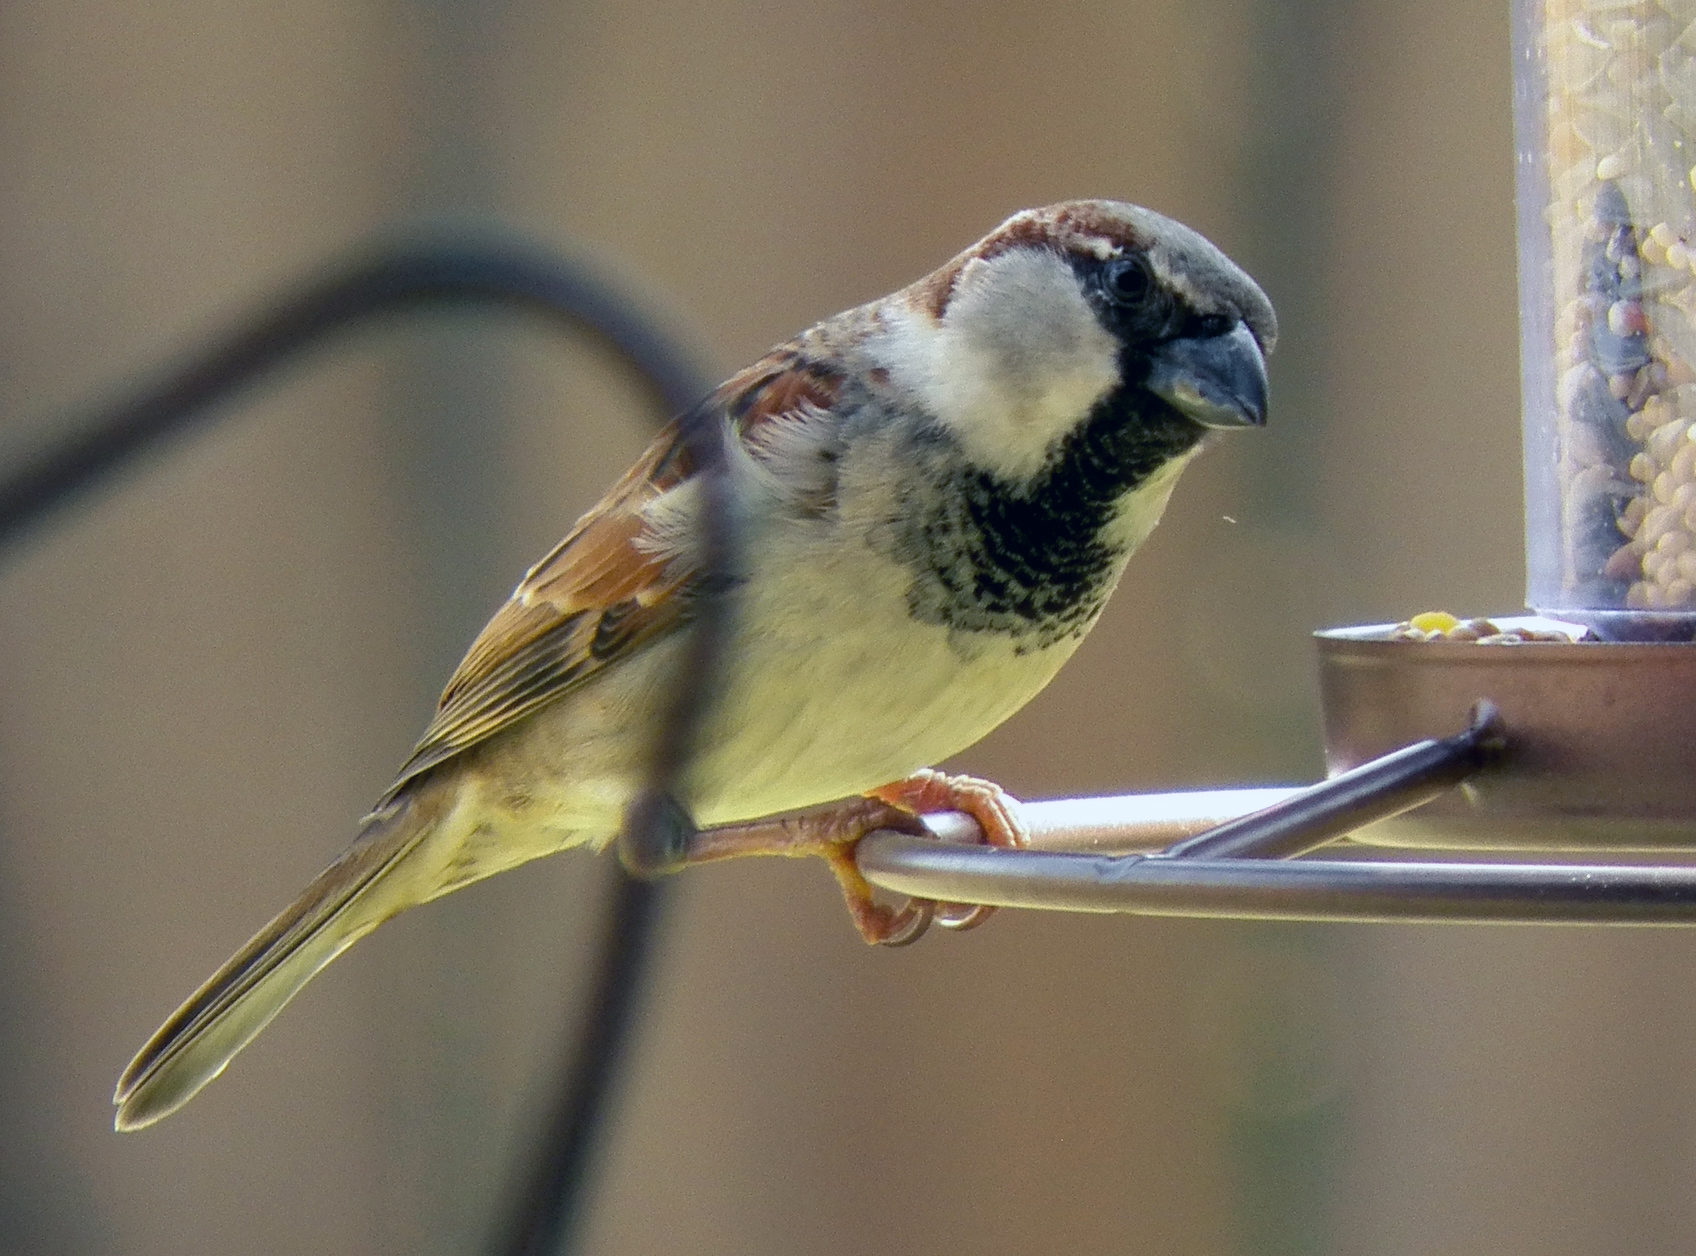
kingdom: Animalia
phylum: Chordata
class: Aves
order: Passeriformes
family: Passeridae
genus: Passer
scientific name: Passer domesticus
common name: House sparrow
